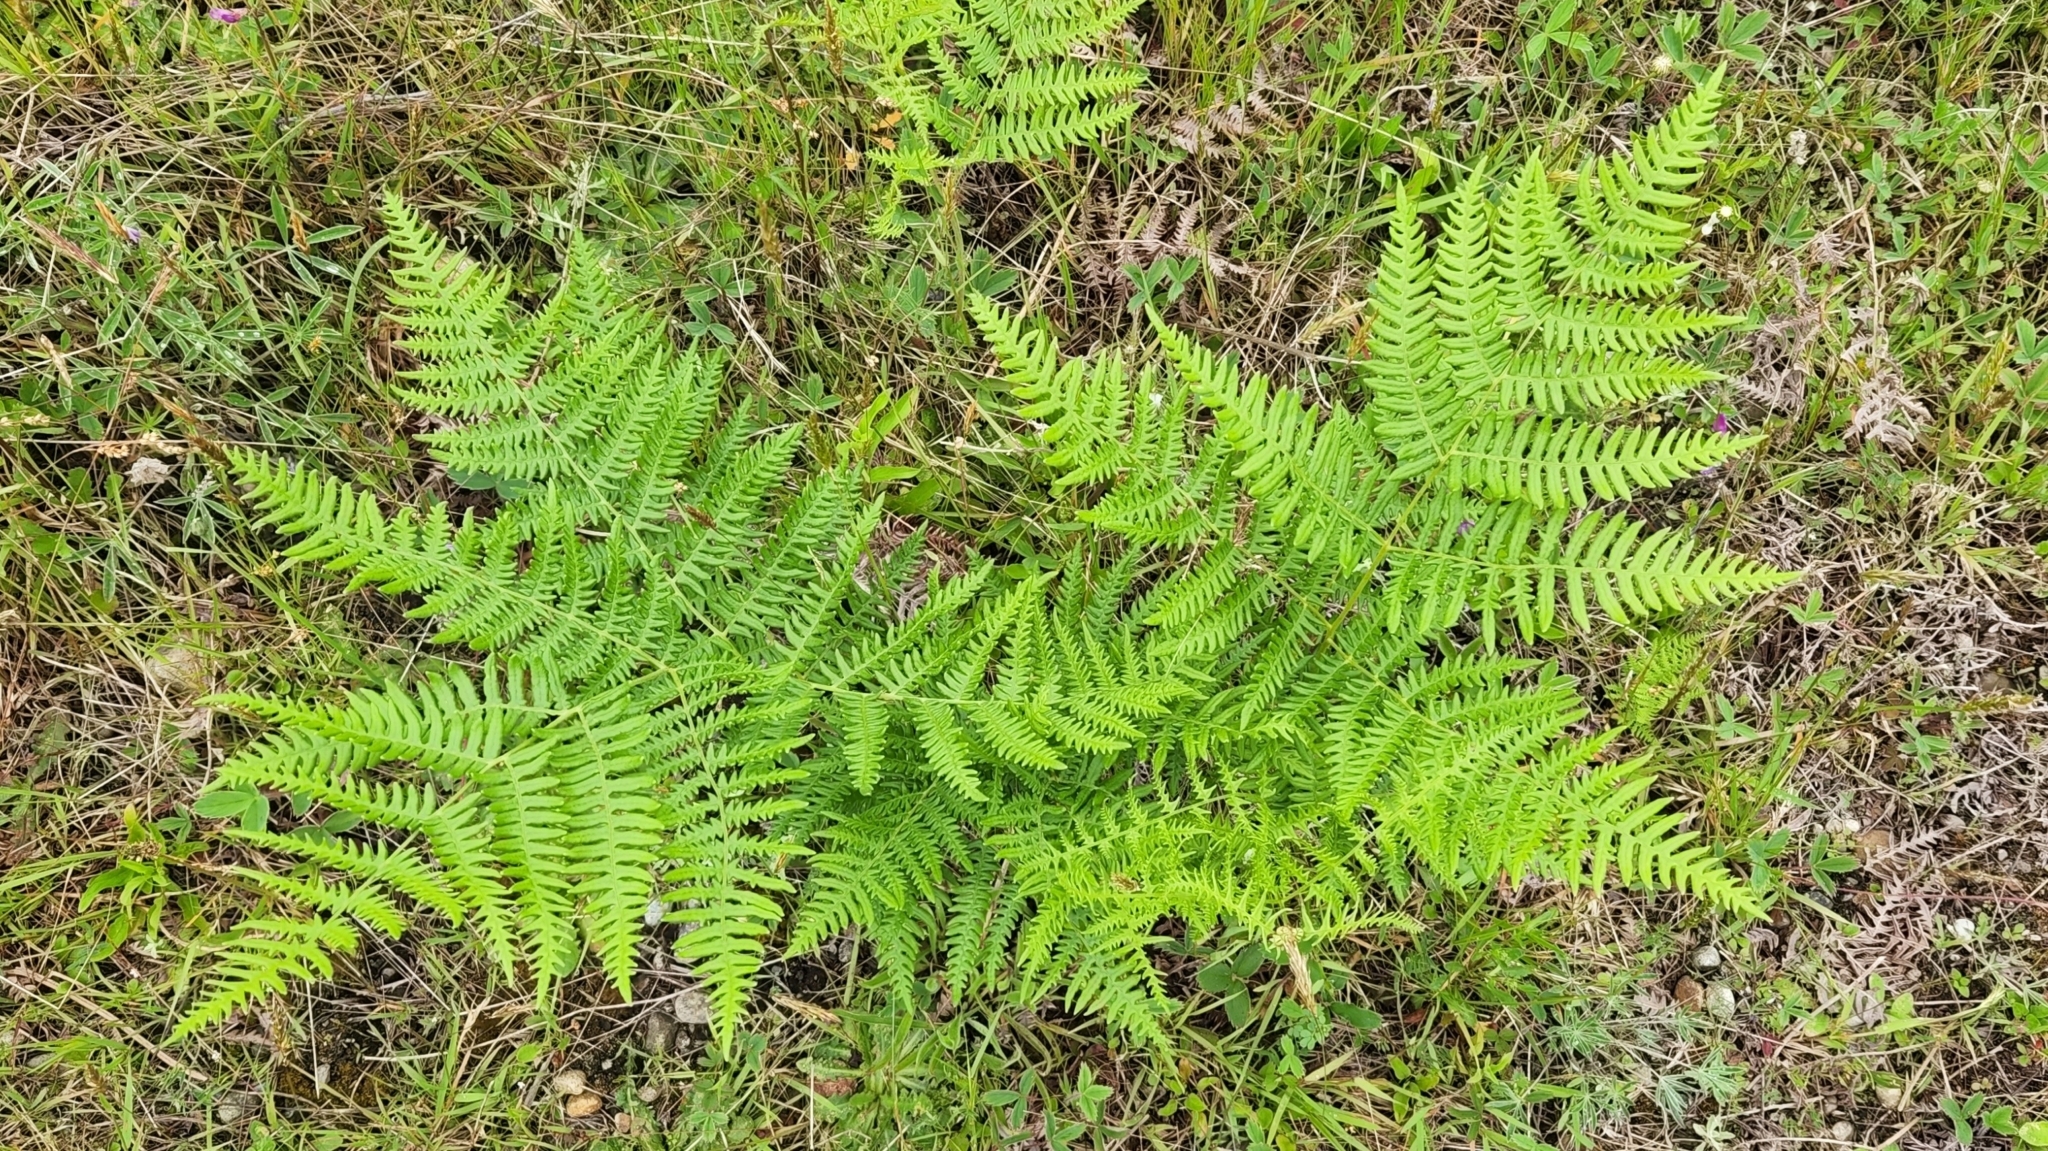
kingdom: Plantae
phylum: Tracheophyta
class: Polypodiopsida
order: Polypodiales
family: Dennstaedtiaceae
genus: Pteridium
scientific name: Pteridium aquilinum
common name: Bracken
